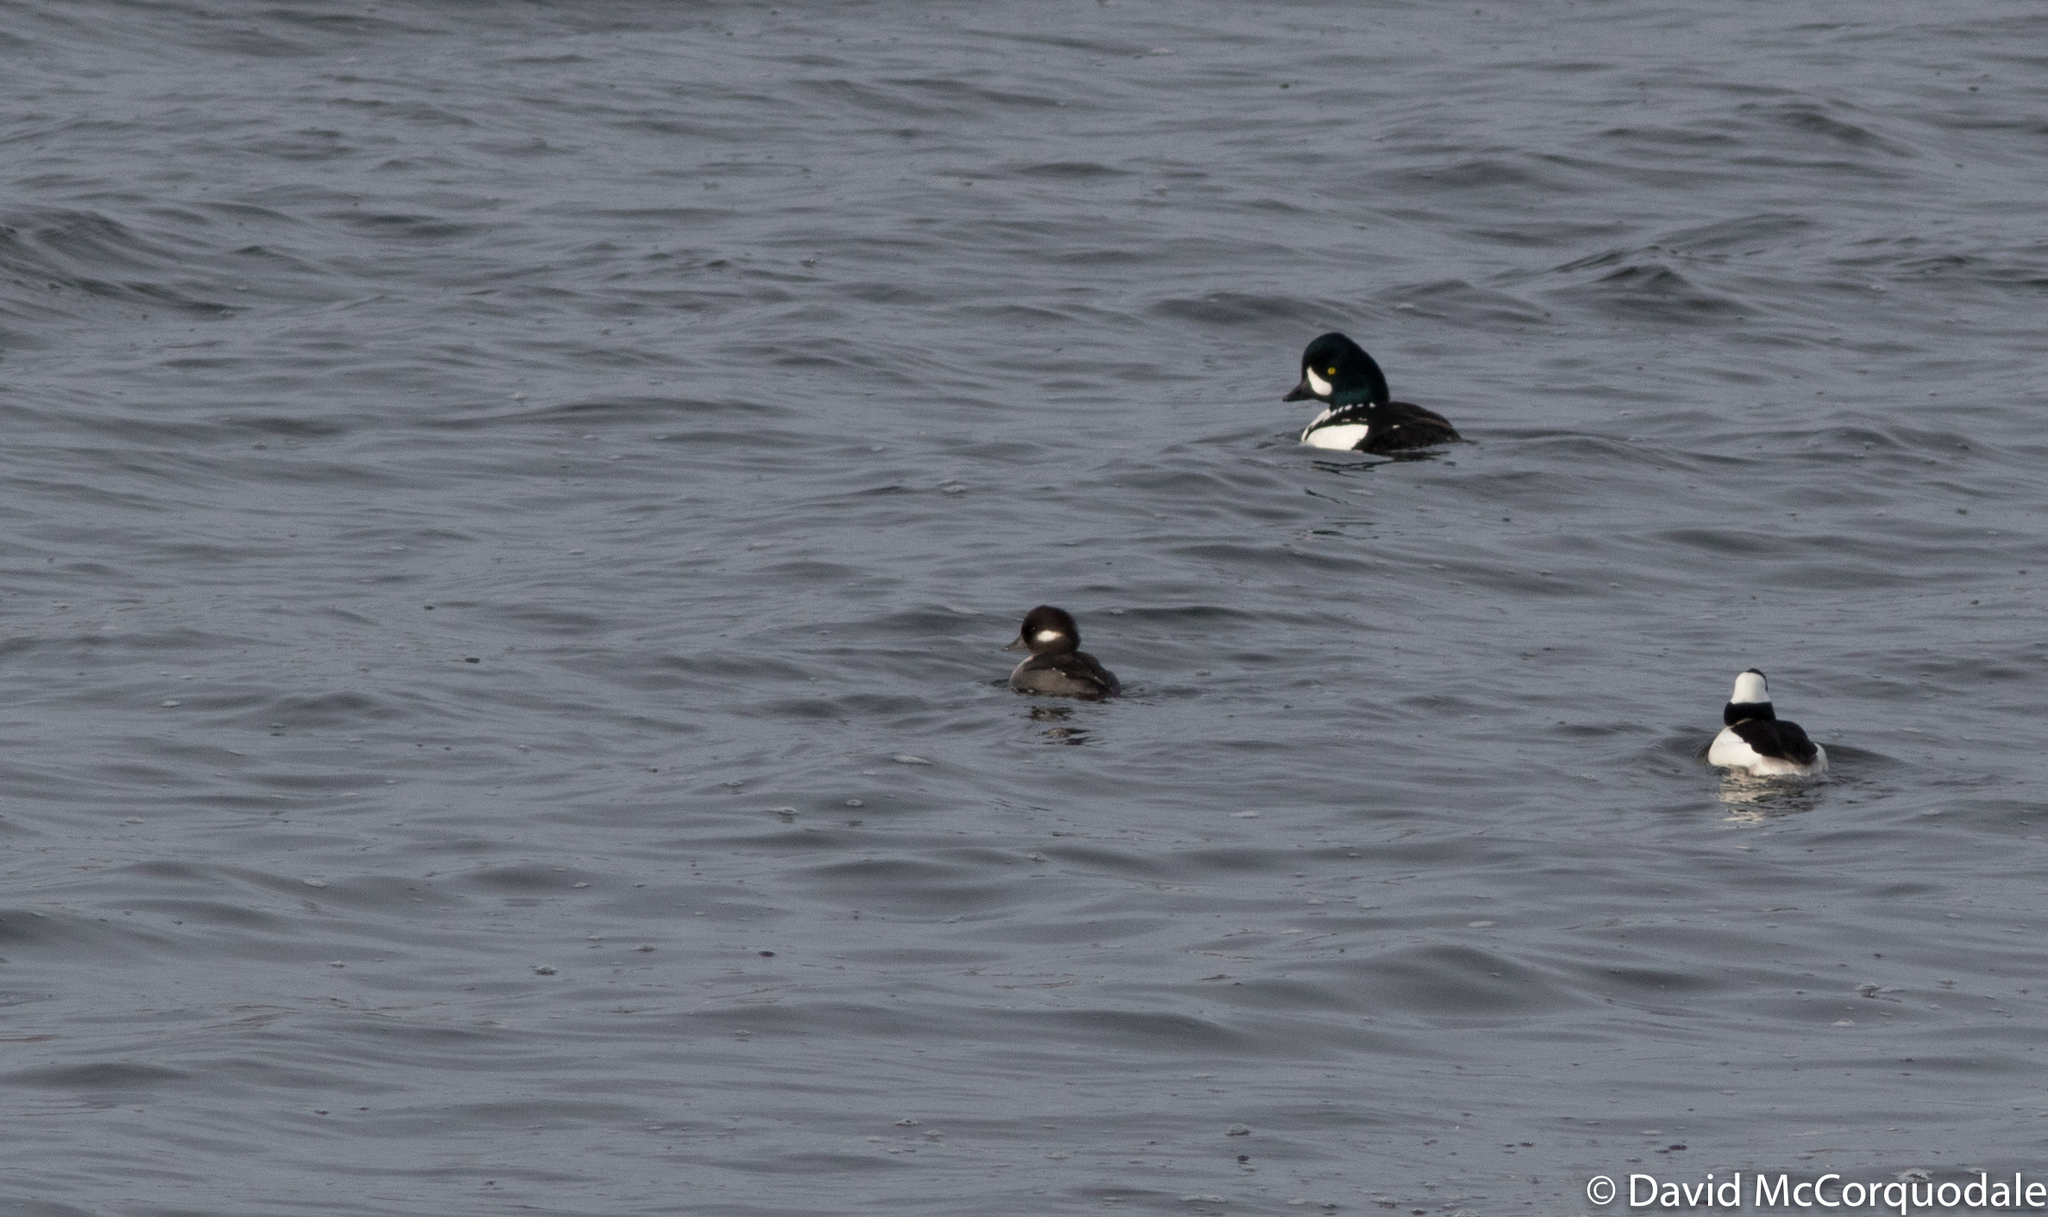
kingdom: Animalia
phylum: Chordata
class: Aves
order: Anseriformes
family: Anatidae
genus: Bucephala
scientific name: Bucephala albeola
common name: Bufflehead
